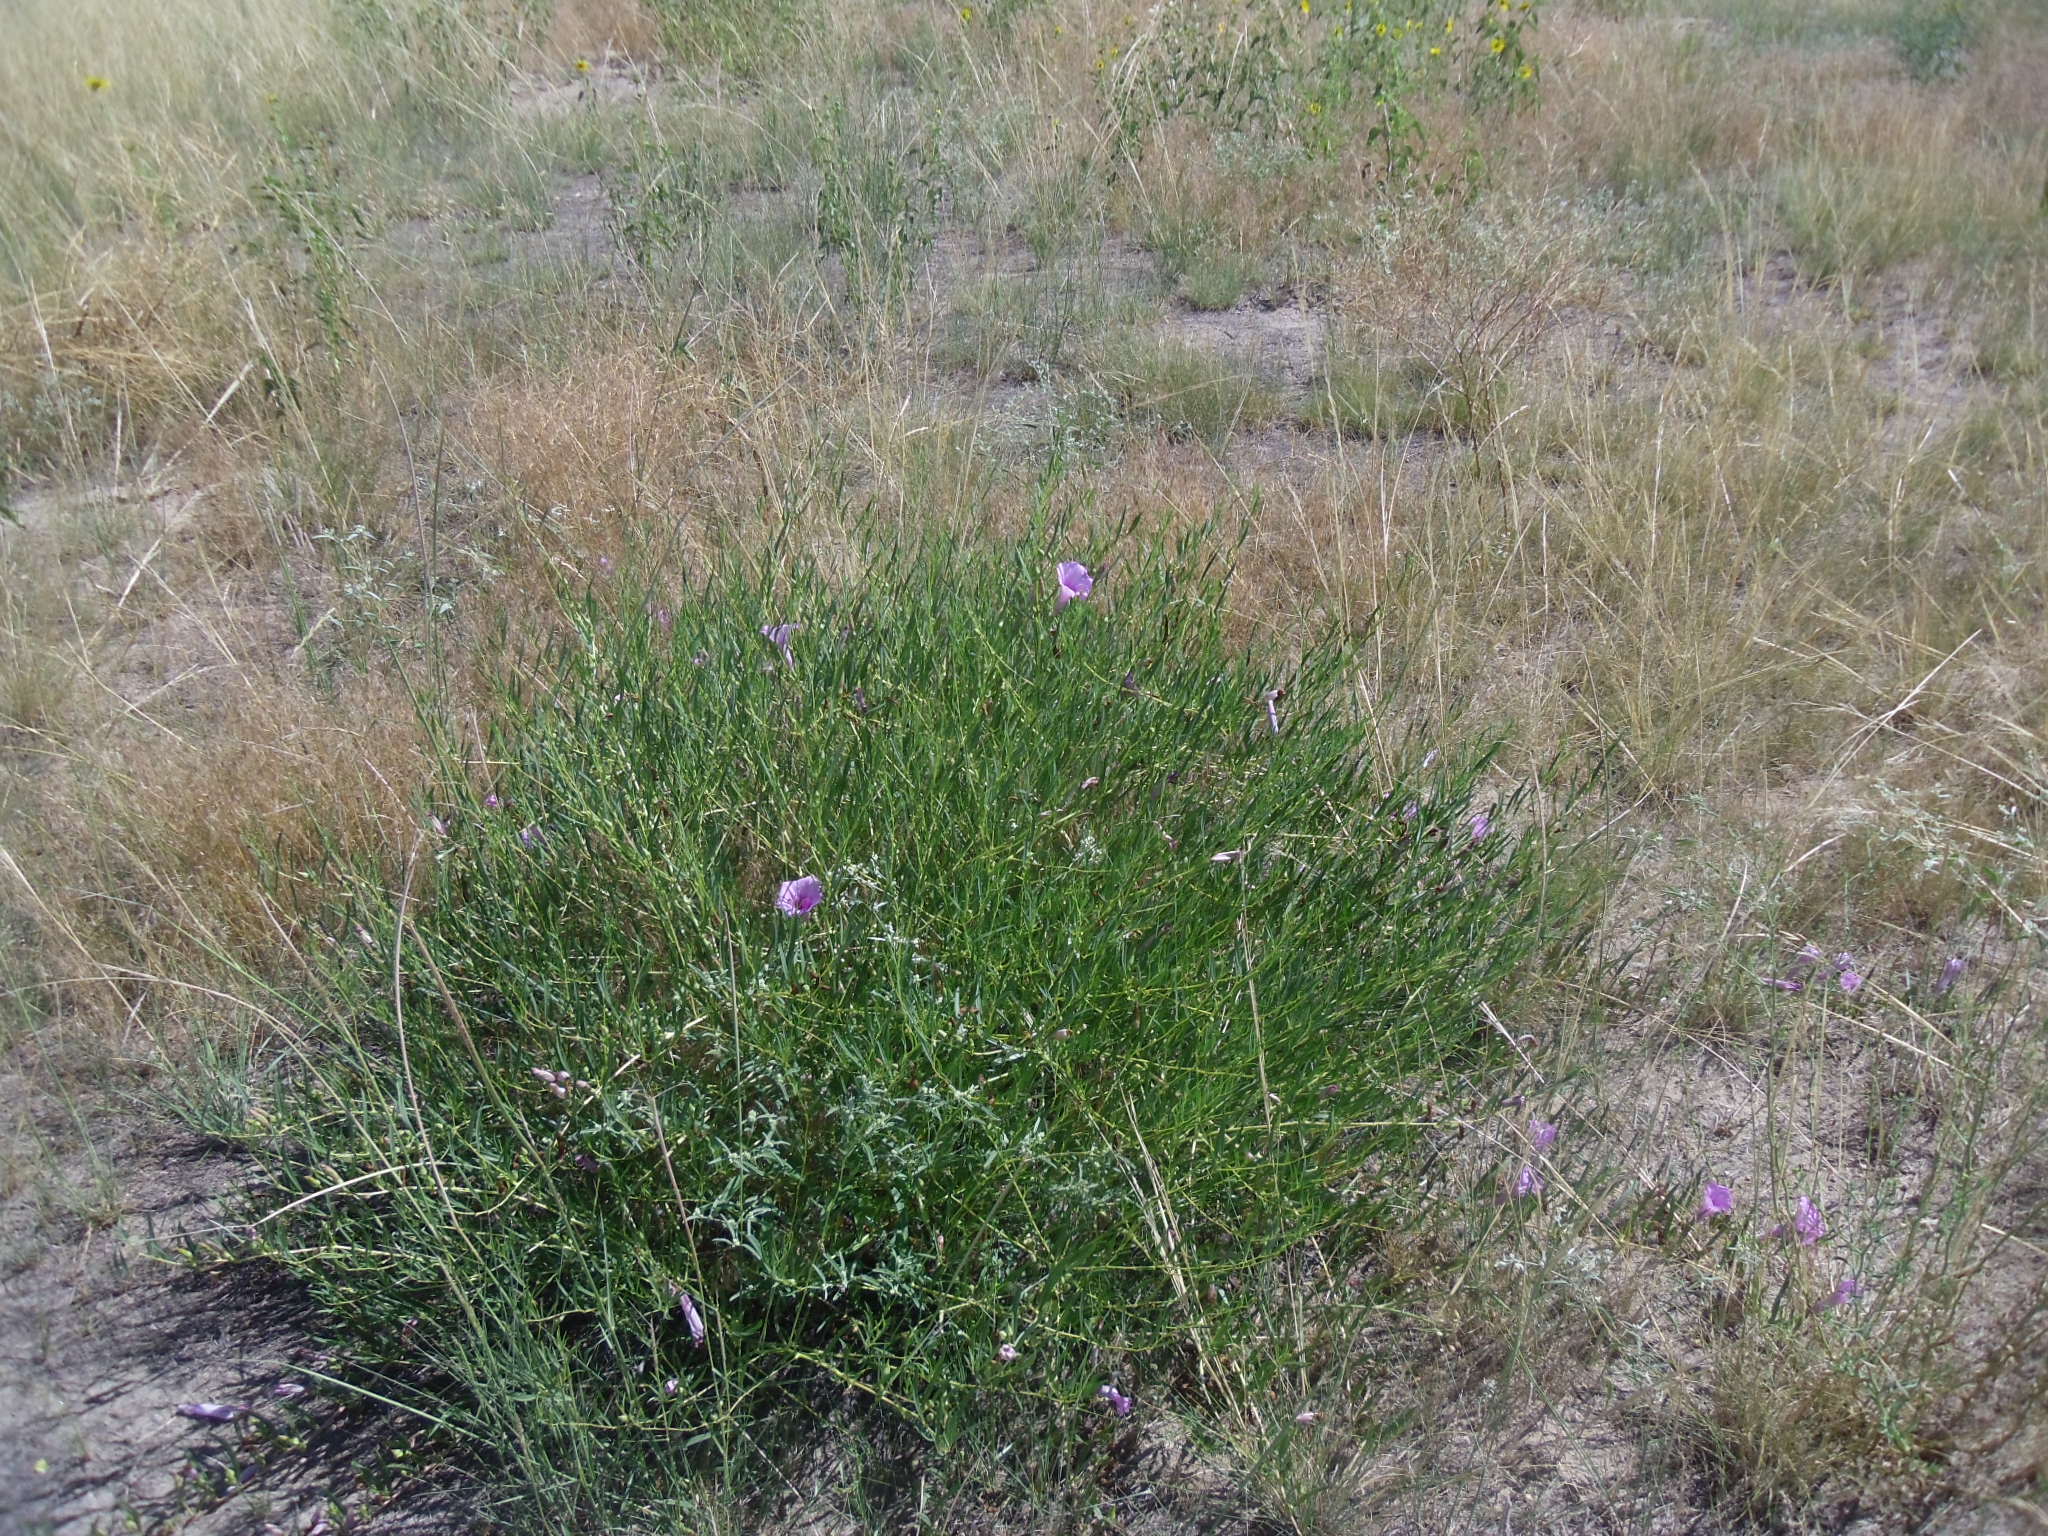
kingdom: Plantae
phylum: Tracheophyta
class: Magnoliopsida
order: Solanales
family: Convolvulaceae
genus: Ipomoea
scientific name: Ipomoea leptophylla
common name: Bush moonflower
